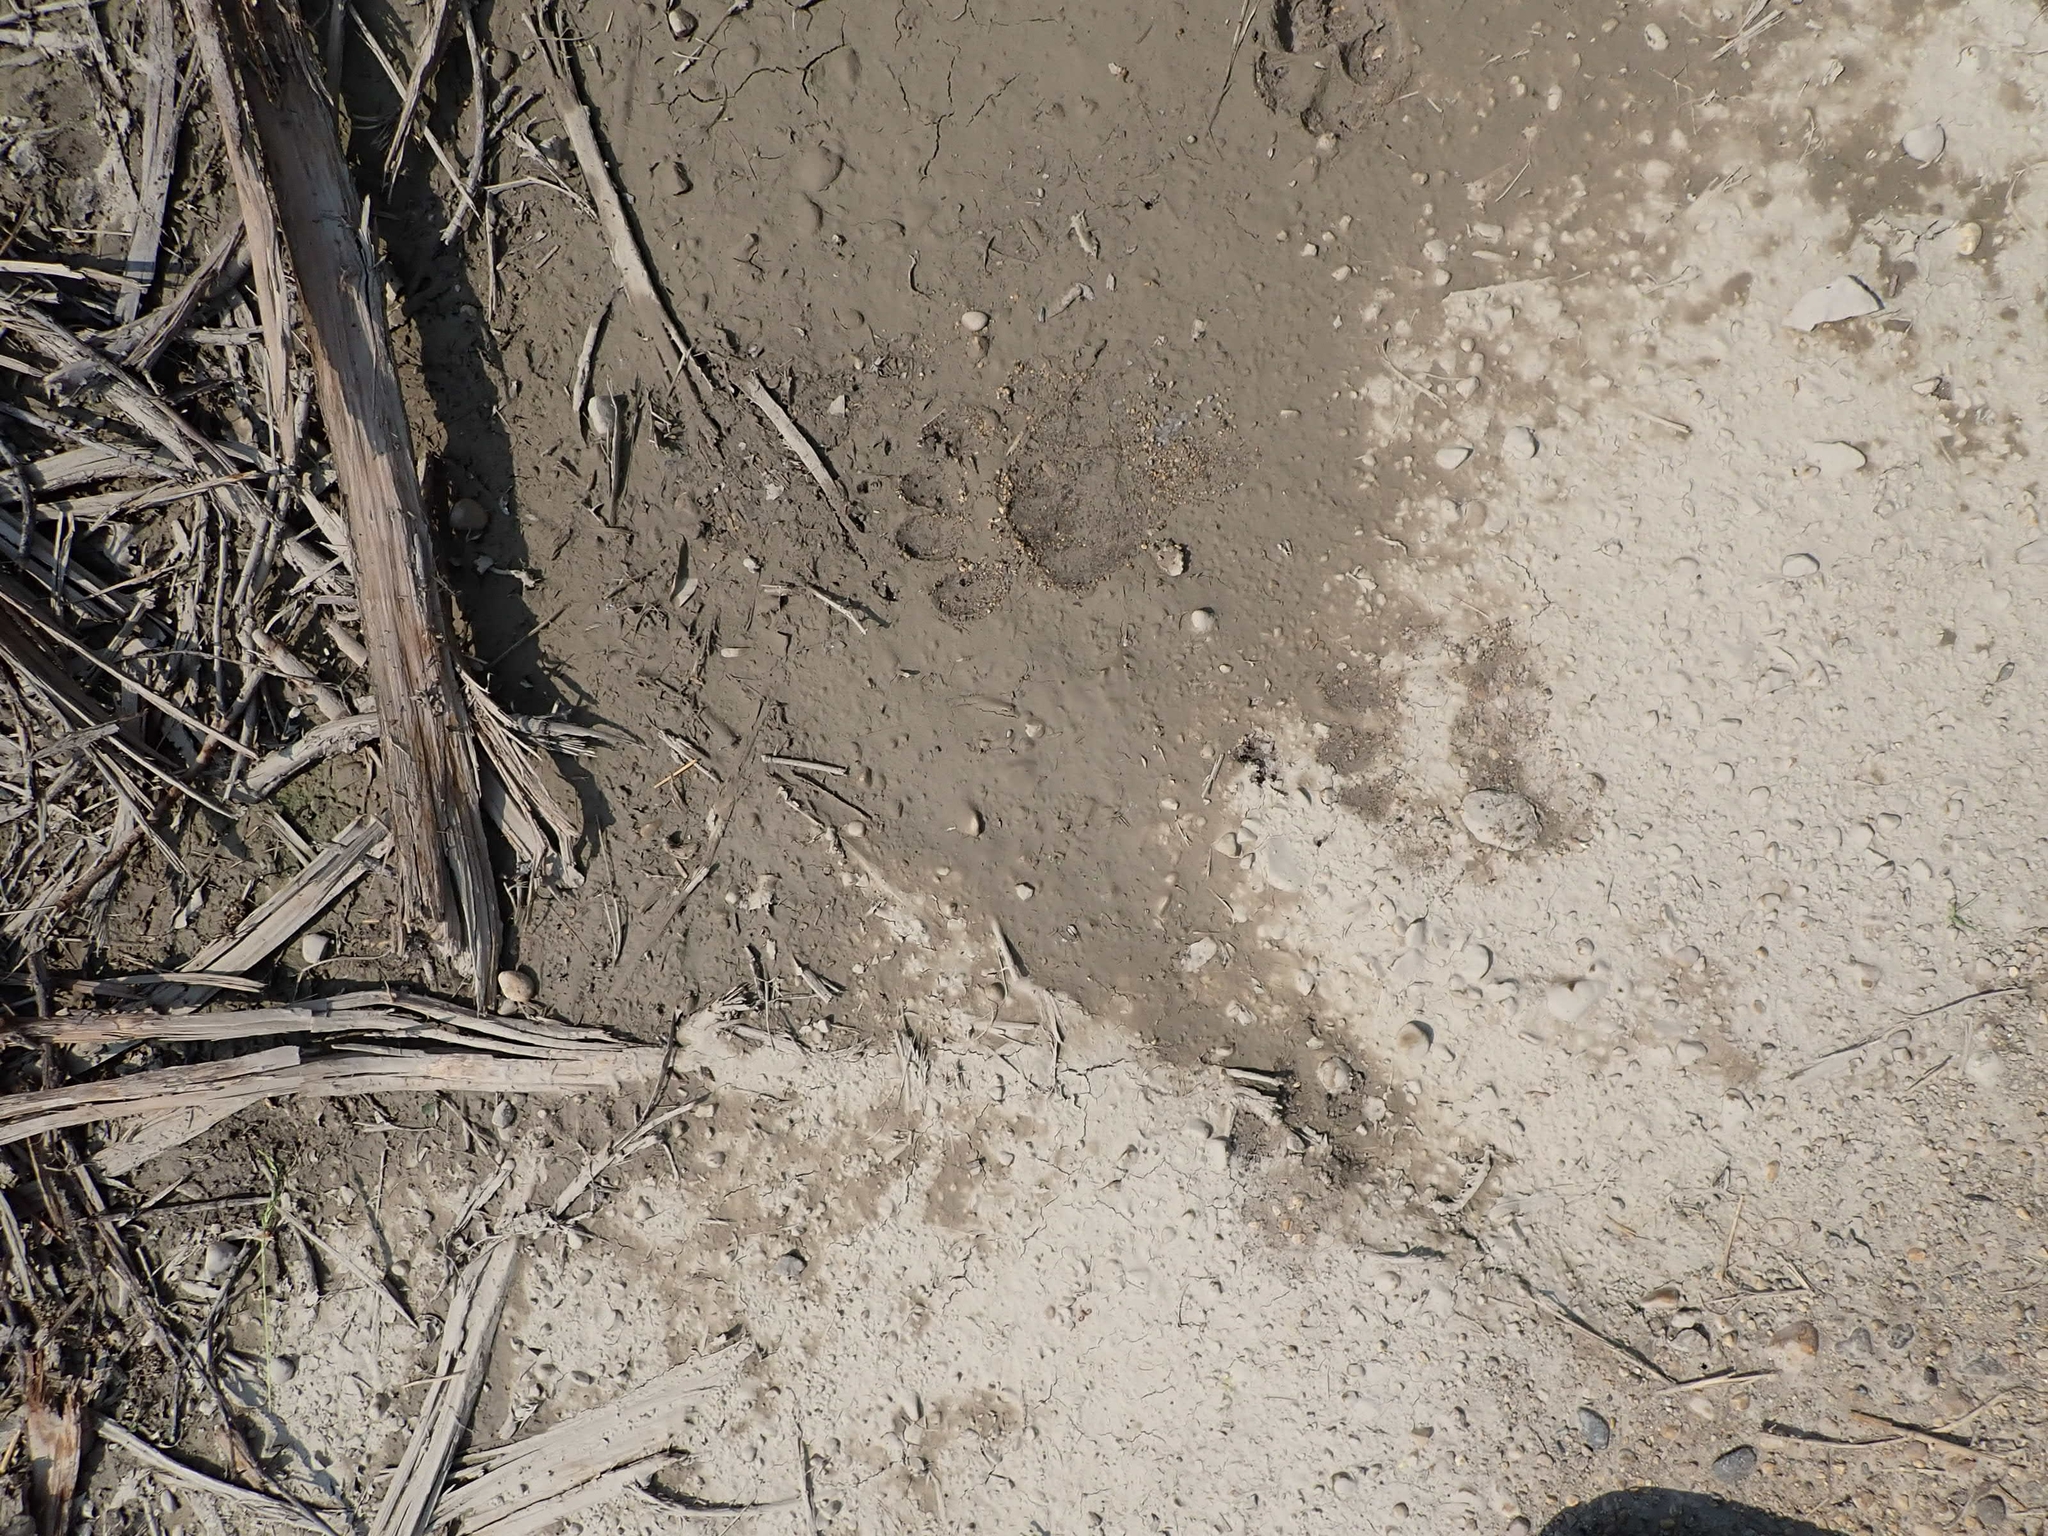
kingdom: Animalia
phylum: Chordata
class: Mammalia
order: Carnivora
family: Ursidae
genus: Ursus
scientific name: Ursus americanus
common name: American black bear
